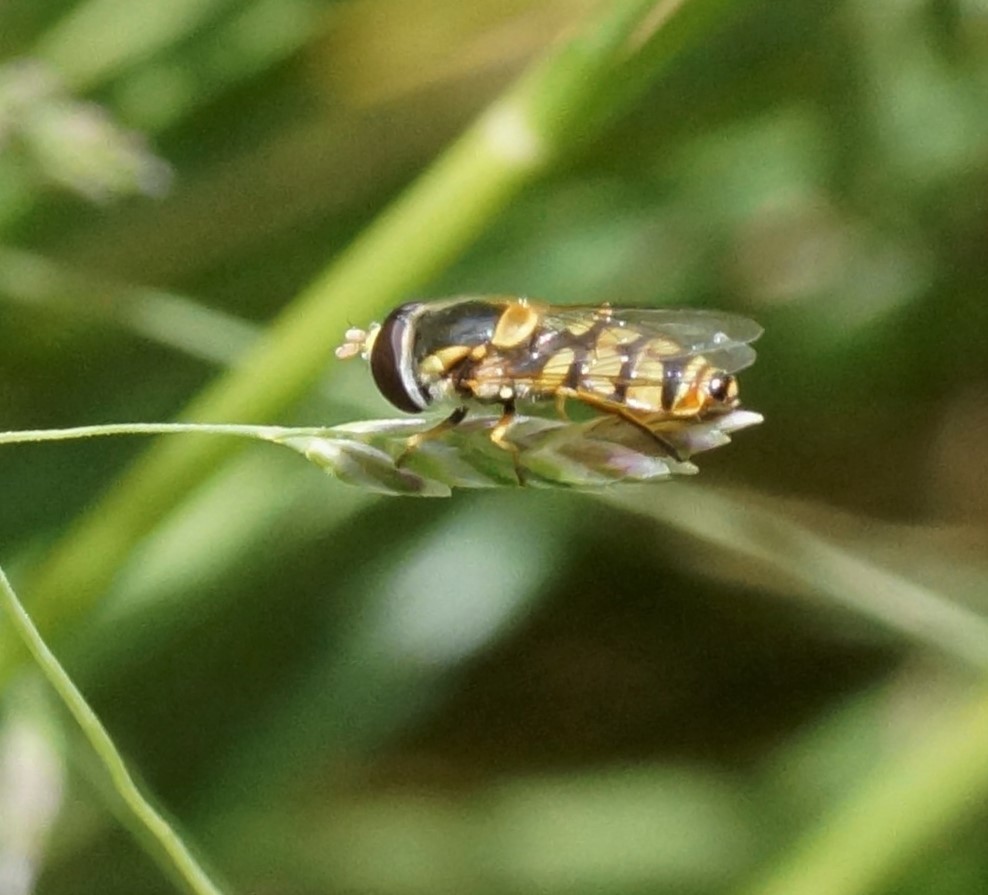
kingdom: Animalia
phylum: Arthropoda
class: Insecta
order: Diptera
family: Syrphidae
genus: Simosyrphus
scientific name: Simosyrphus grandicornis
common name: Hoverfly
